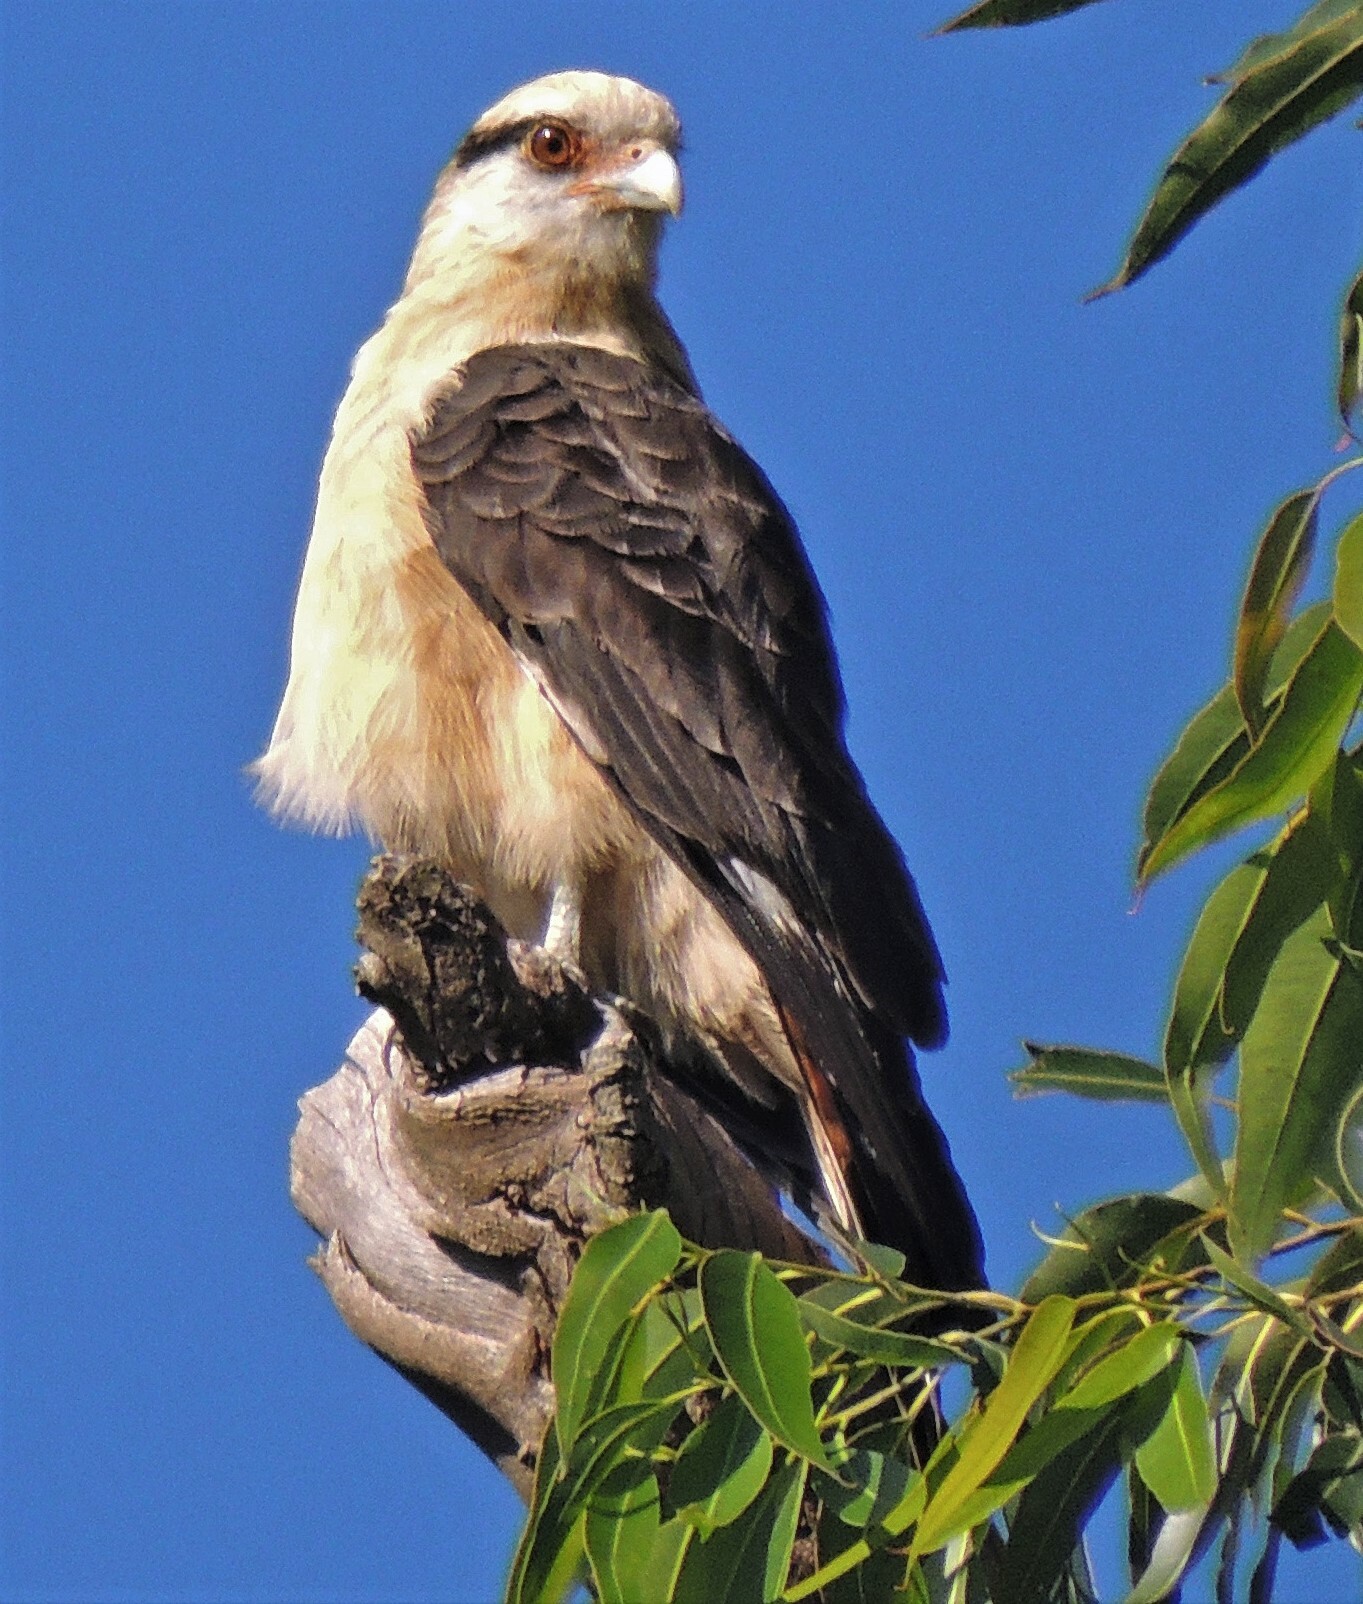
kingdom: Animalia
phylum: Chordata
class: Aves
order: Falconiformes
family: Falconidae
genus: Daptrius
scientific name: Daptrius
